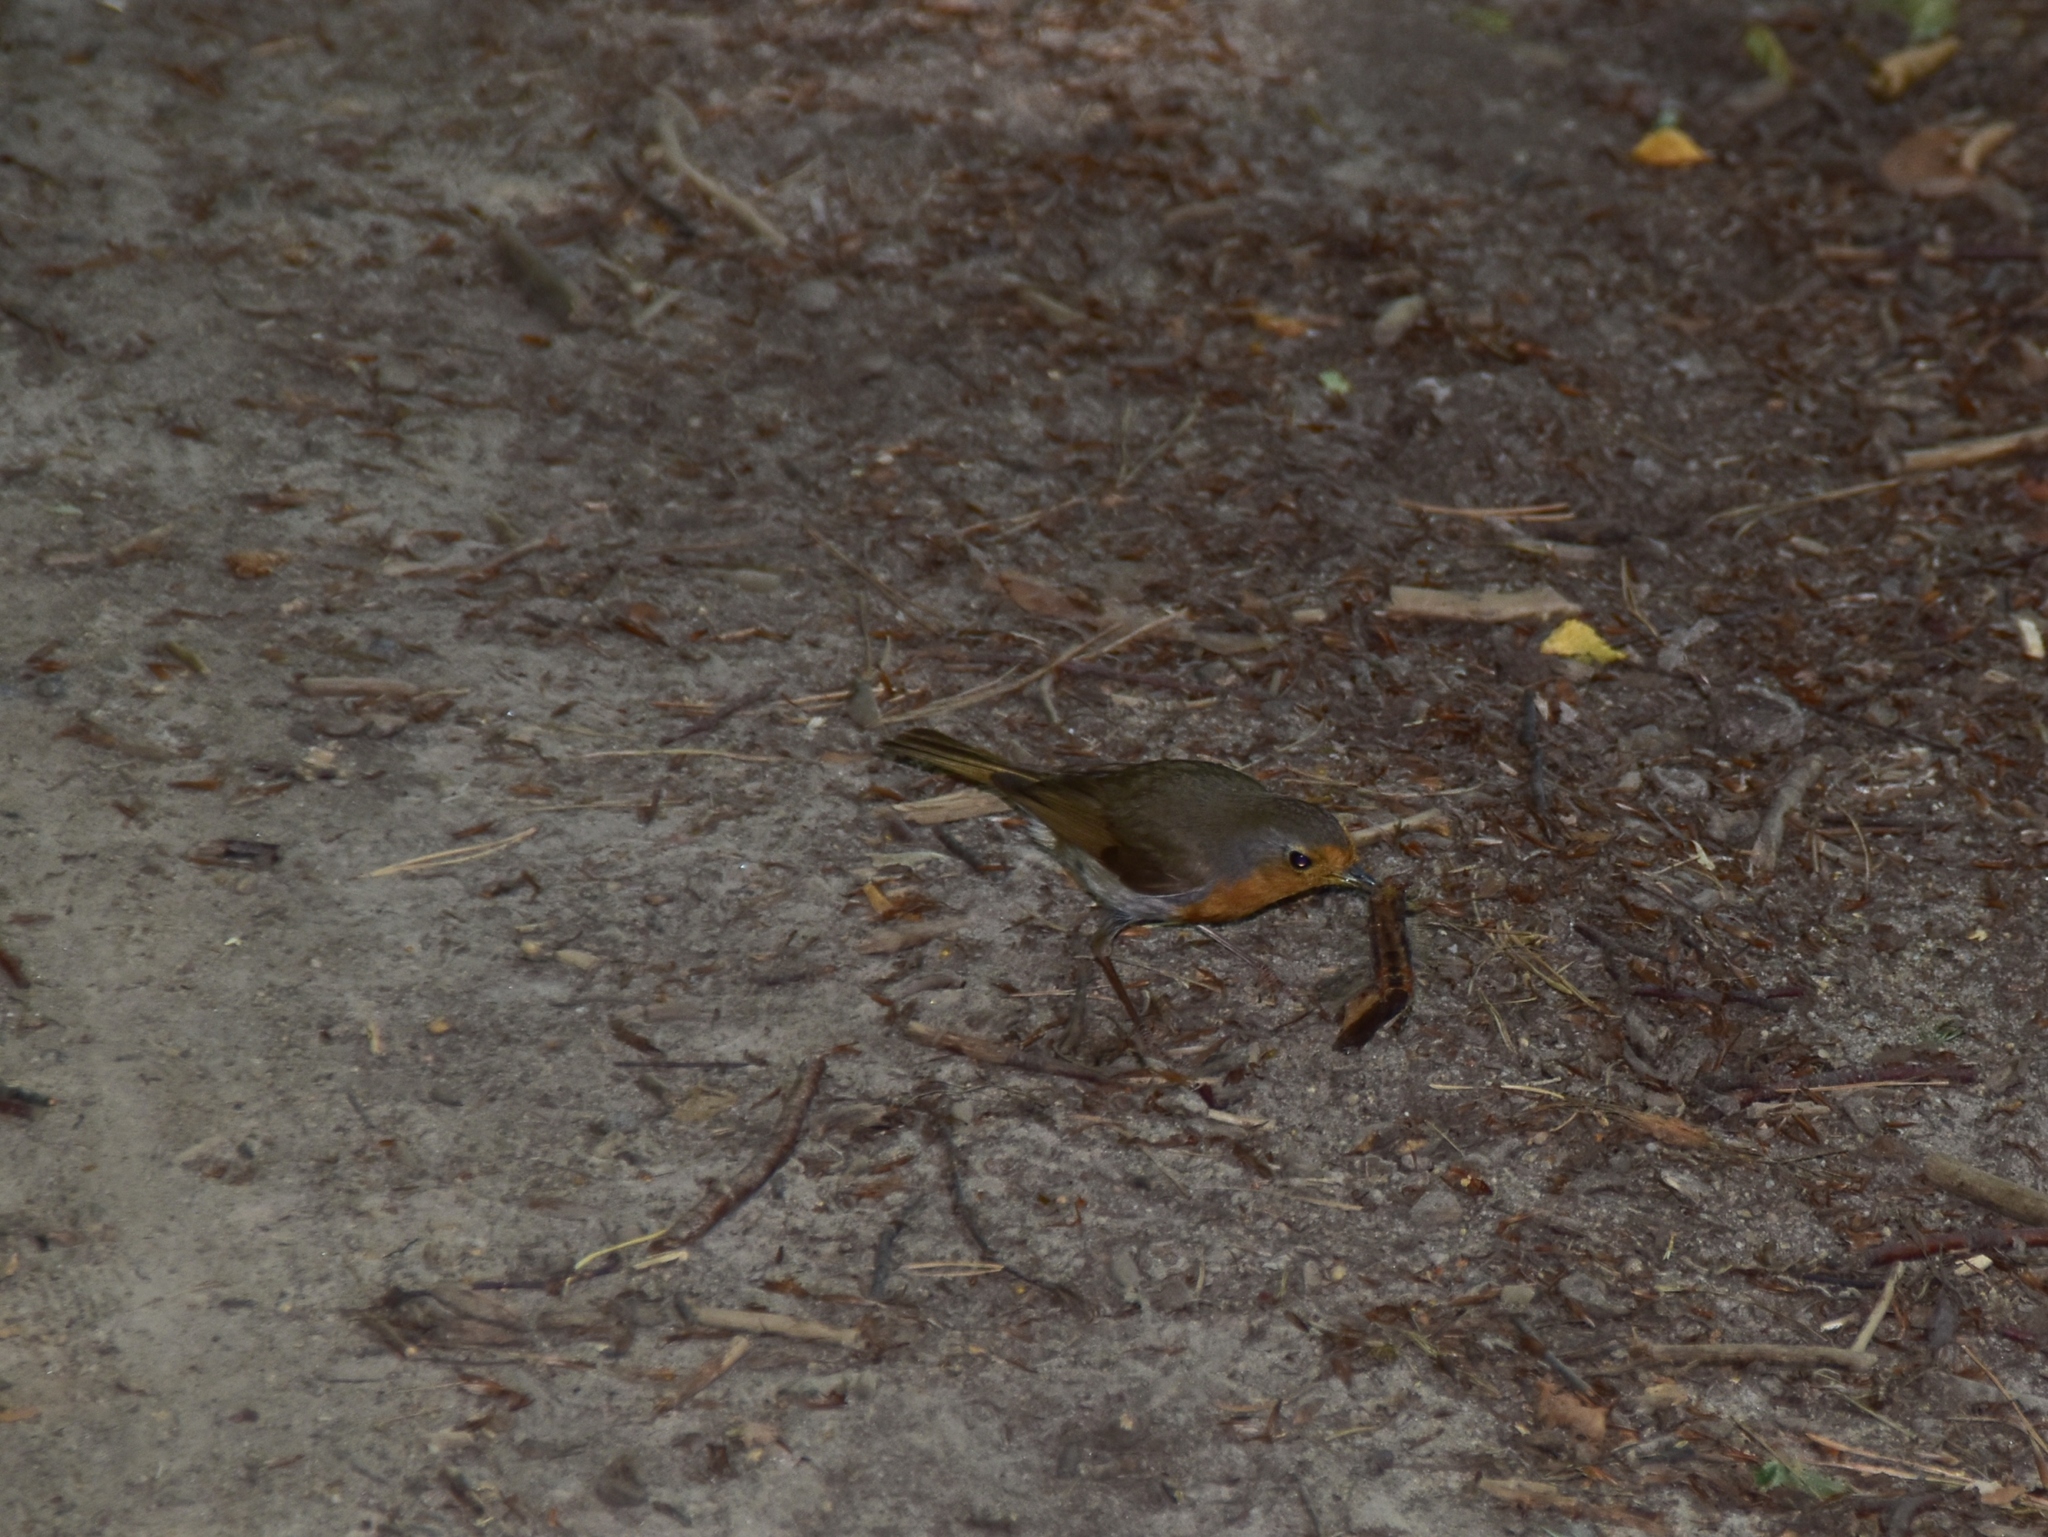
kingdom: Animalia
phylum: Chordata
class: Aves
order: Passeriformes
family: Muscicapidae
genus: Erithacus
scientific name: Erithacus rubecula
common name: European robin
